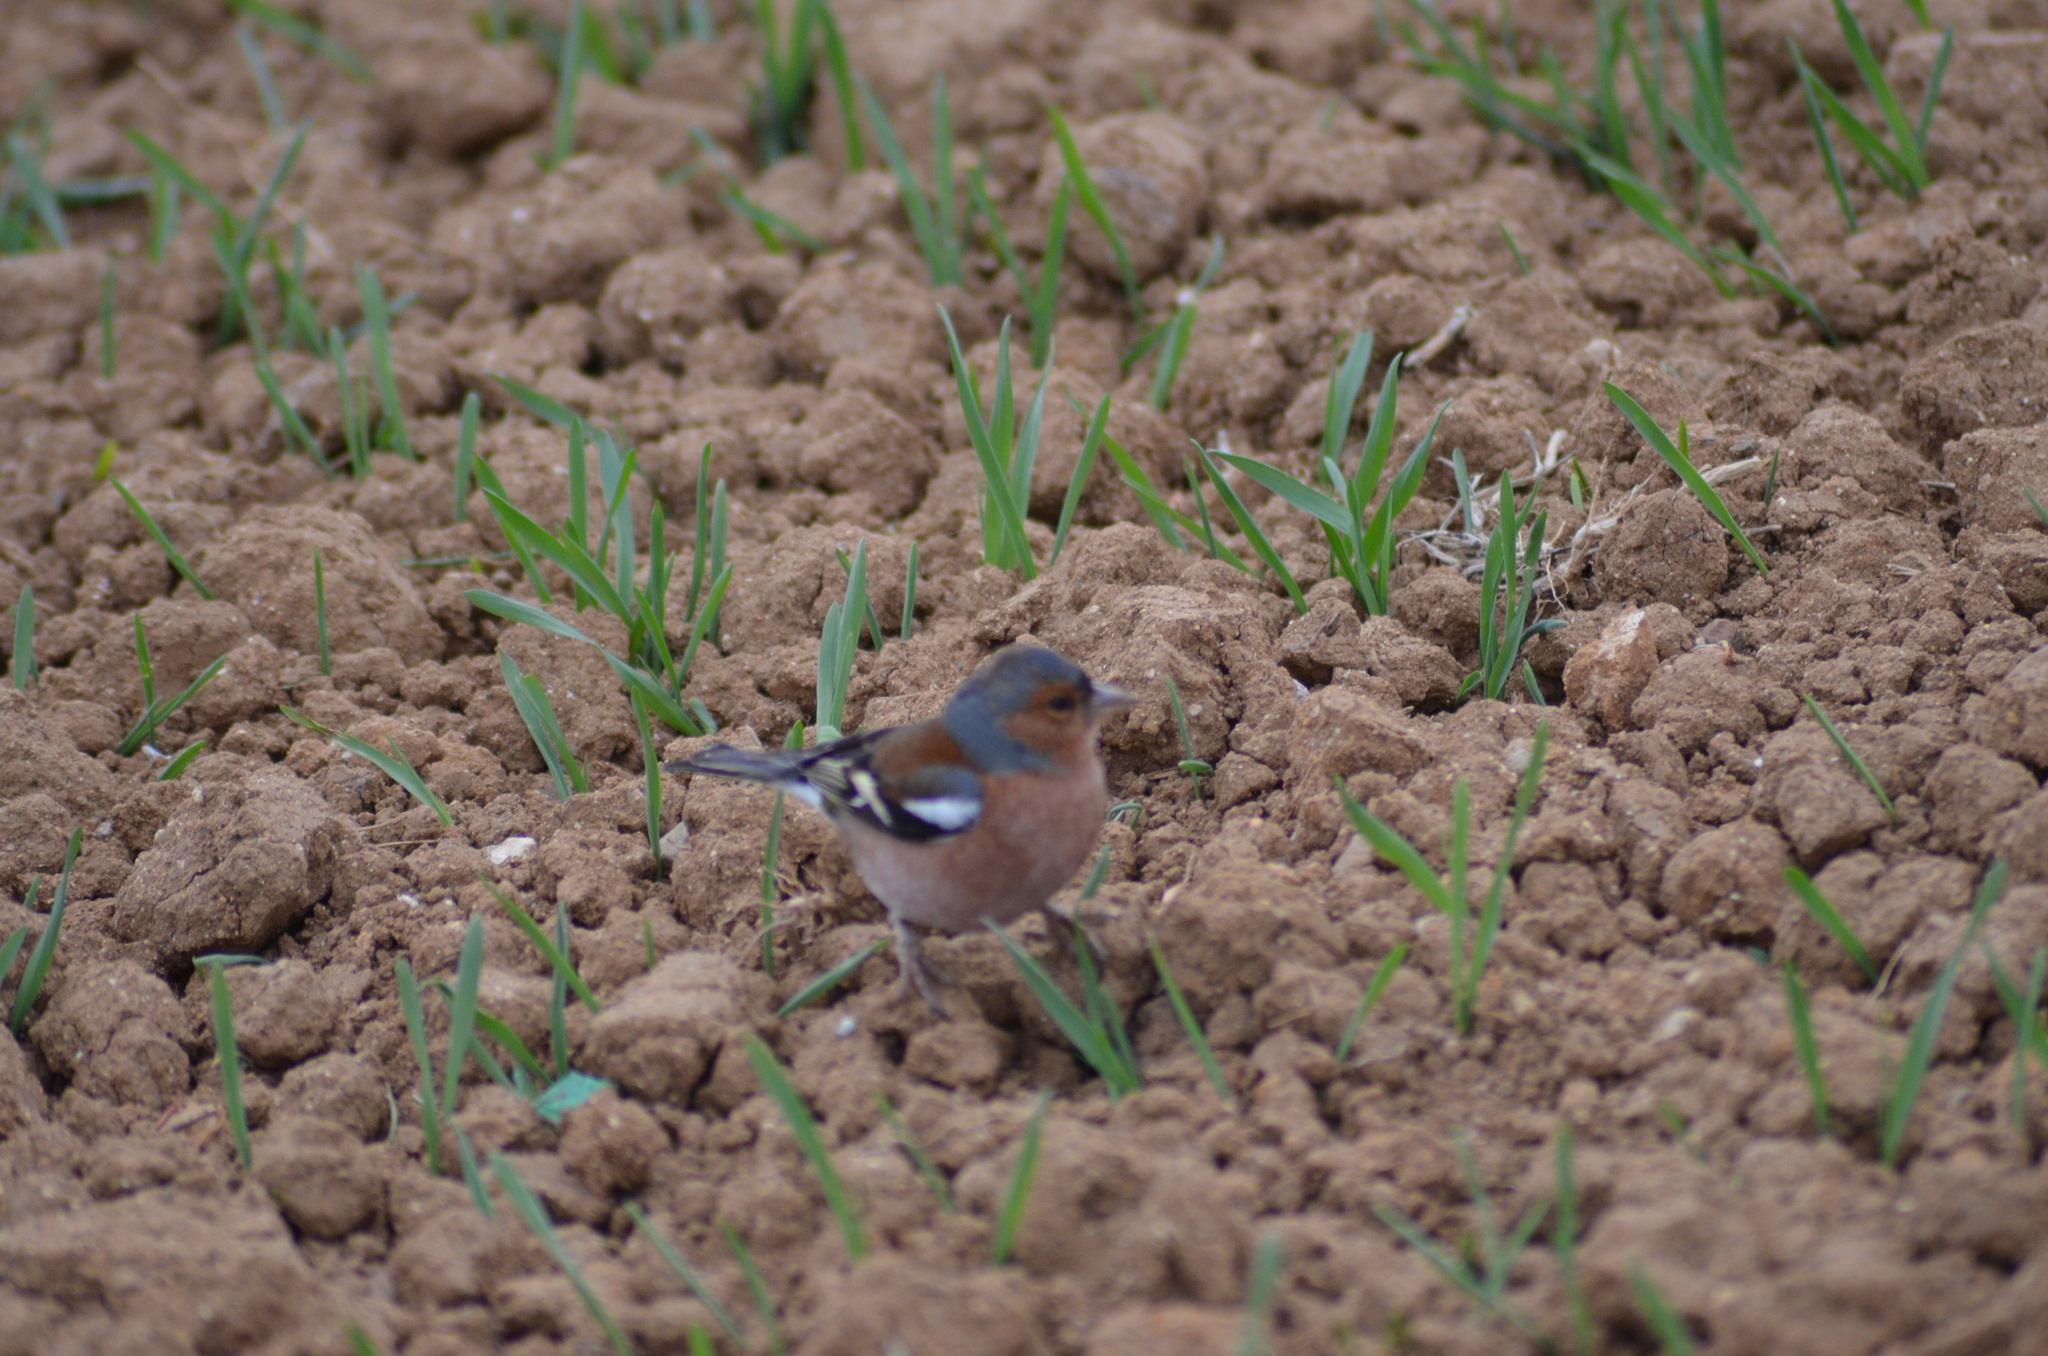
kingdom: Animalia
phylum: Chordata
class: Aves
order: Passeriformes
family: Fringillidae
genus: Fringilla
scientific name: Fringilla coelebs
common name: Common chaffinch
